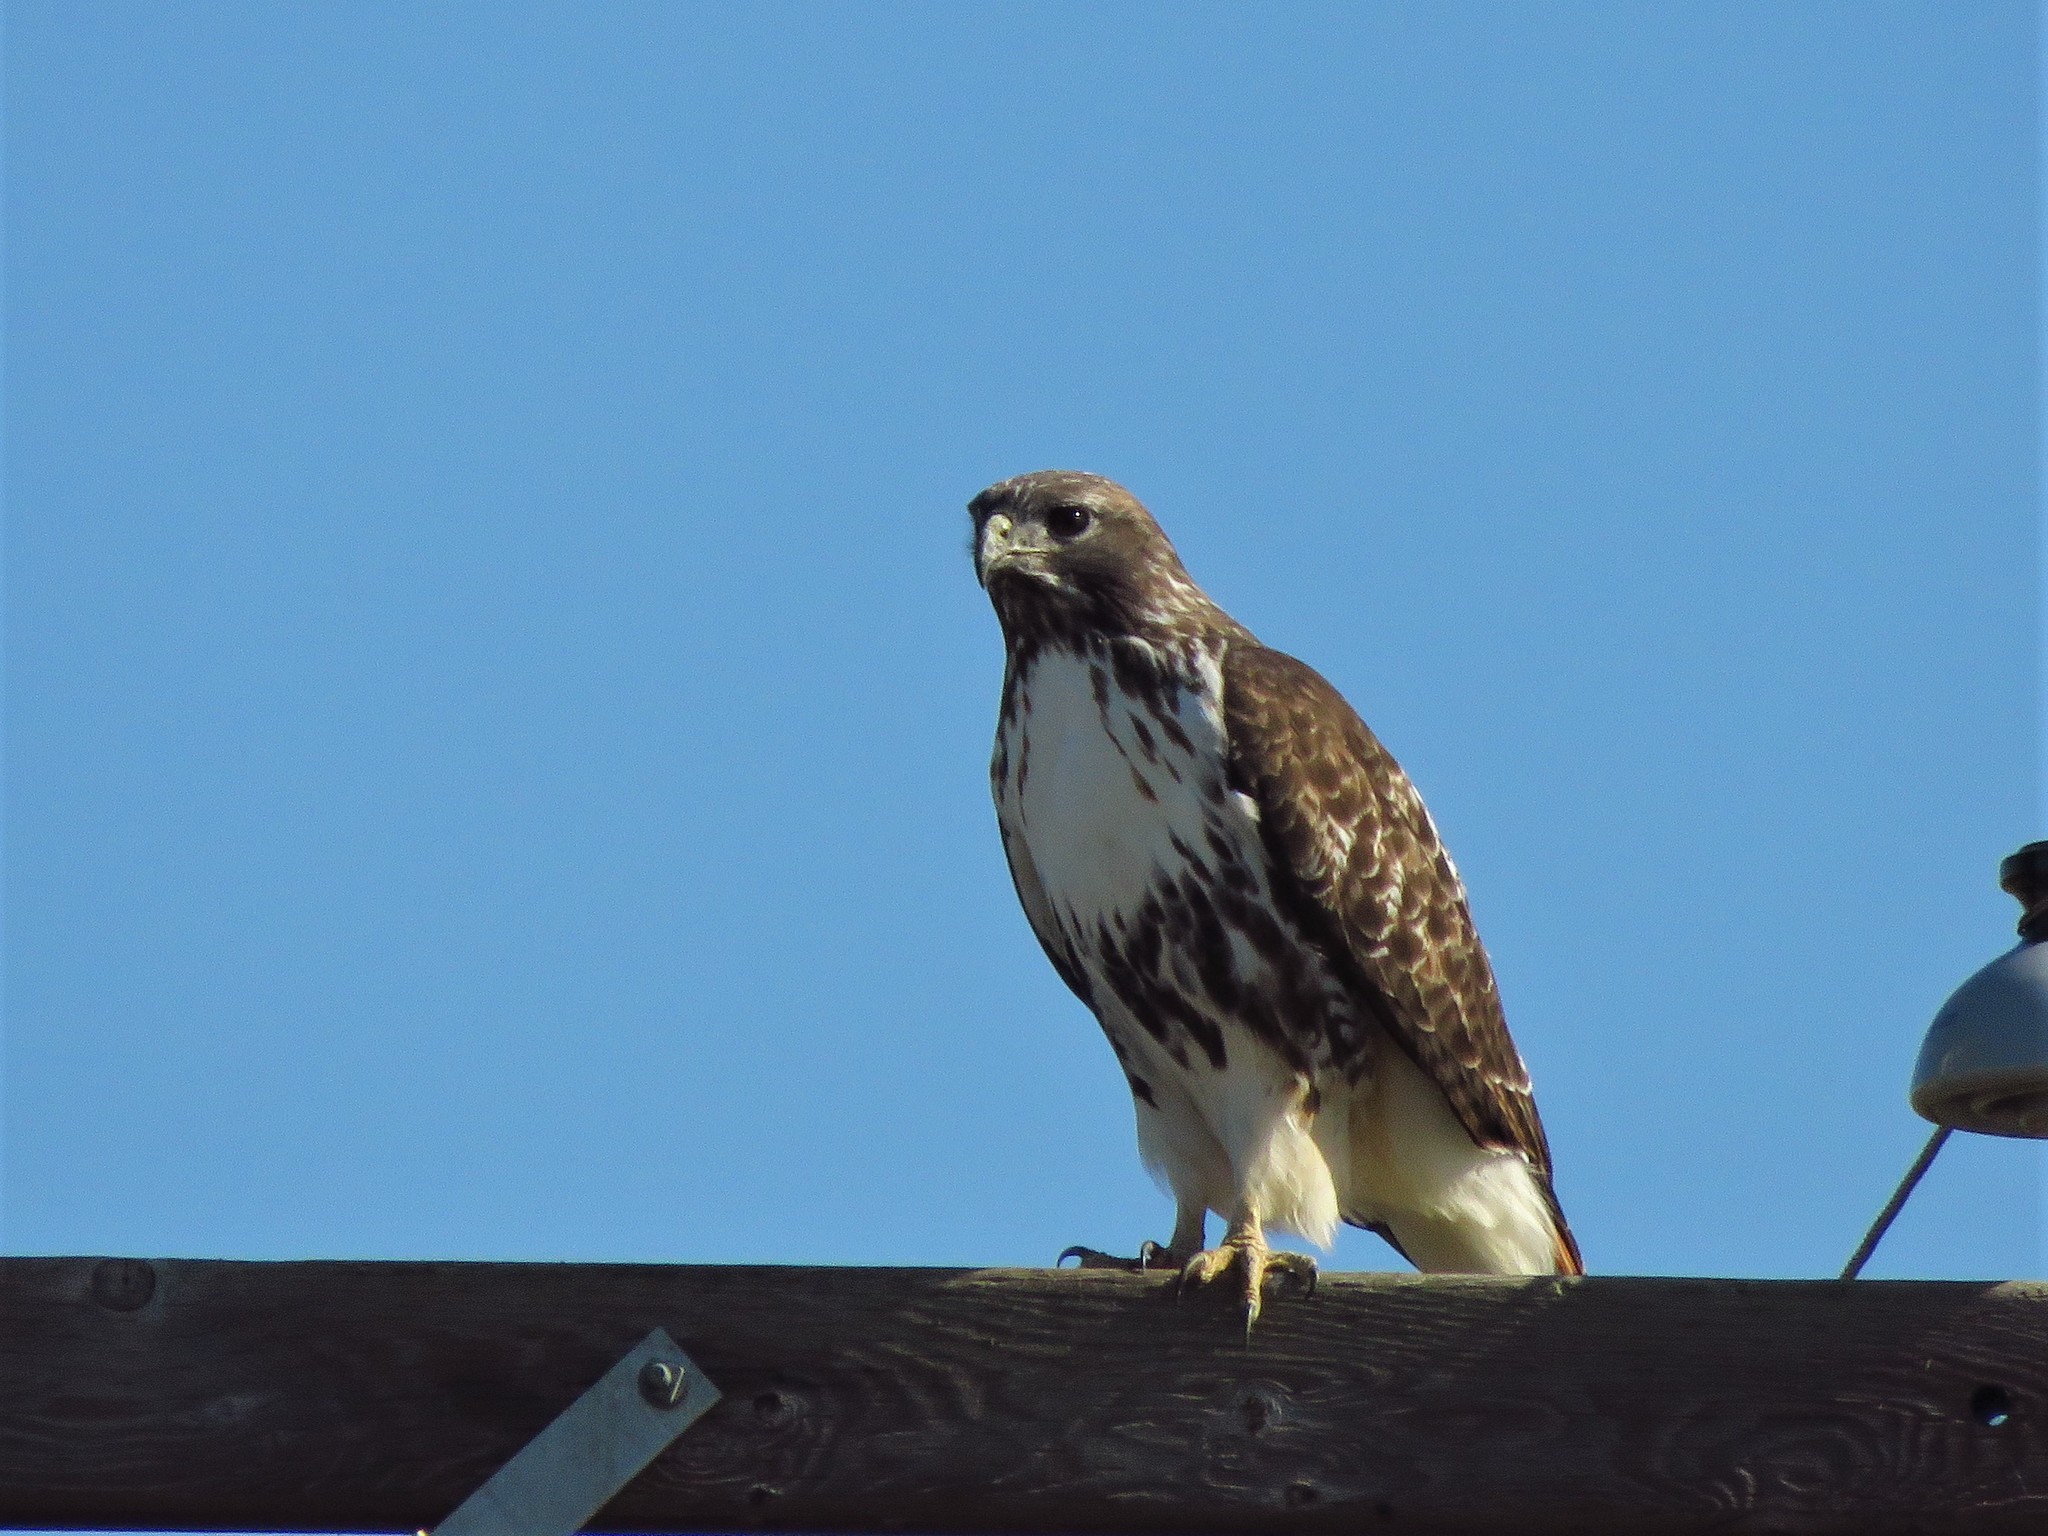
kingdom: Animalia
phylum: Chordata
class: Aves
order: Accipitriformes
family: Accipitridae
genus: Buteo
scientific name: Buteo jamaicensis
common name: Red-tailed hawk
